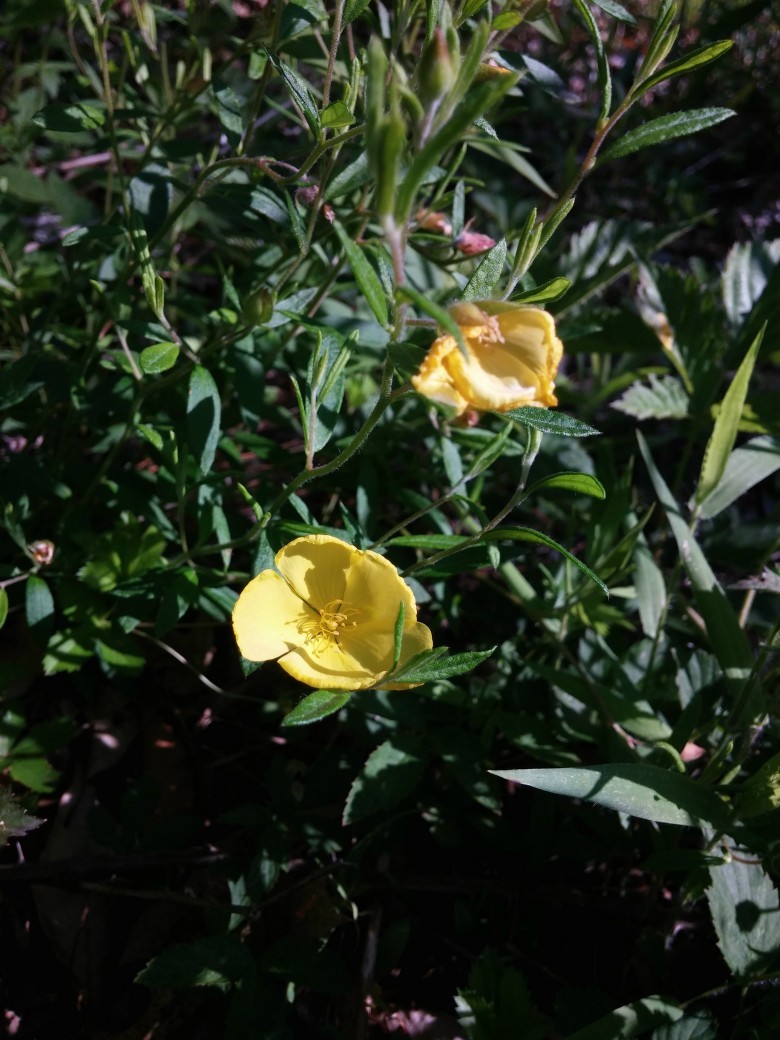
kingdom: Plantae
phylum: Tracheophyta
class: Magnoliopsida
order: Malvales
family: Cistaceae
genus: Crocanthemum
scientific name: Crocanthemum canadense
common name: Canada frostweed
